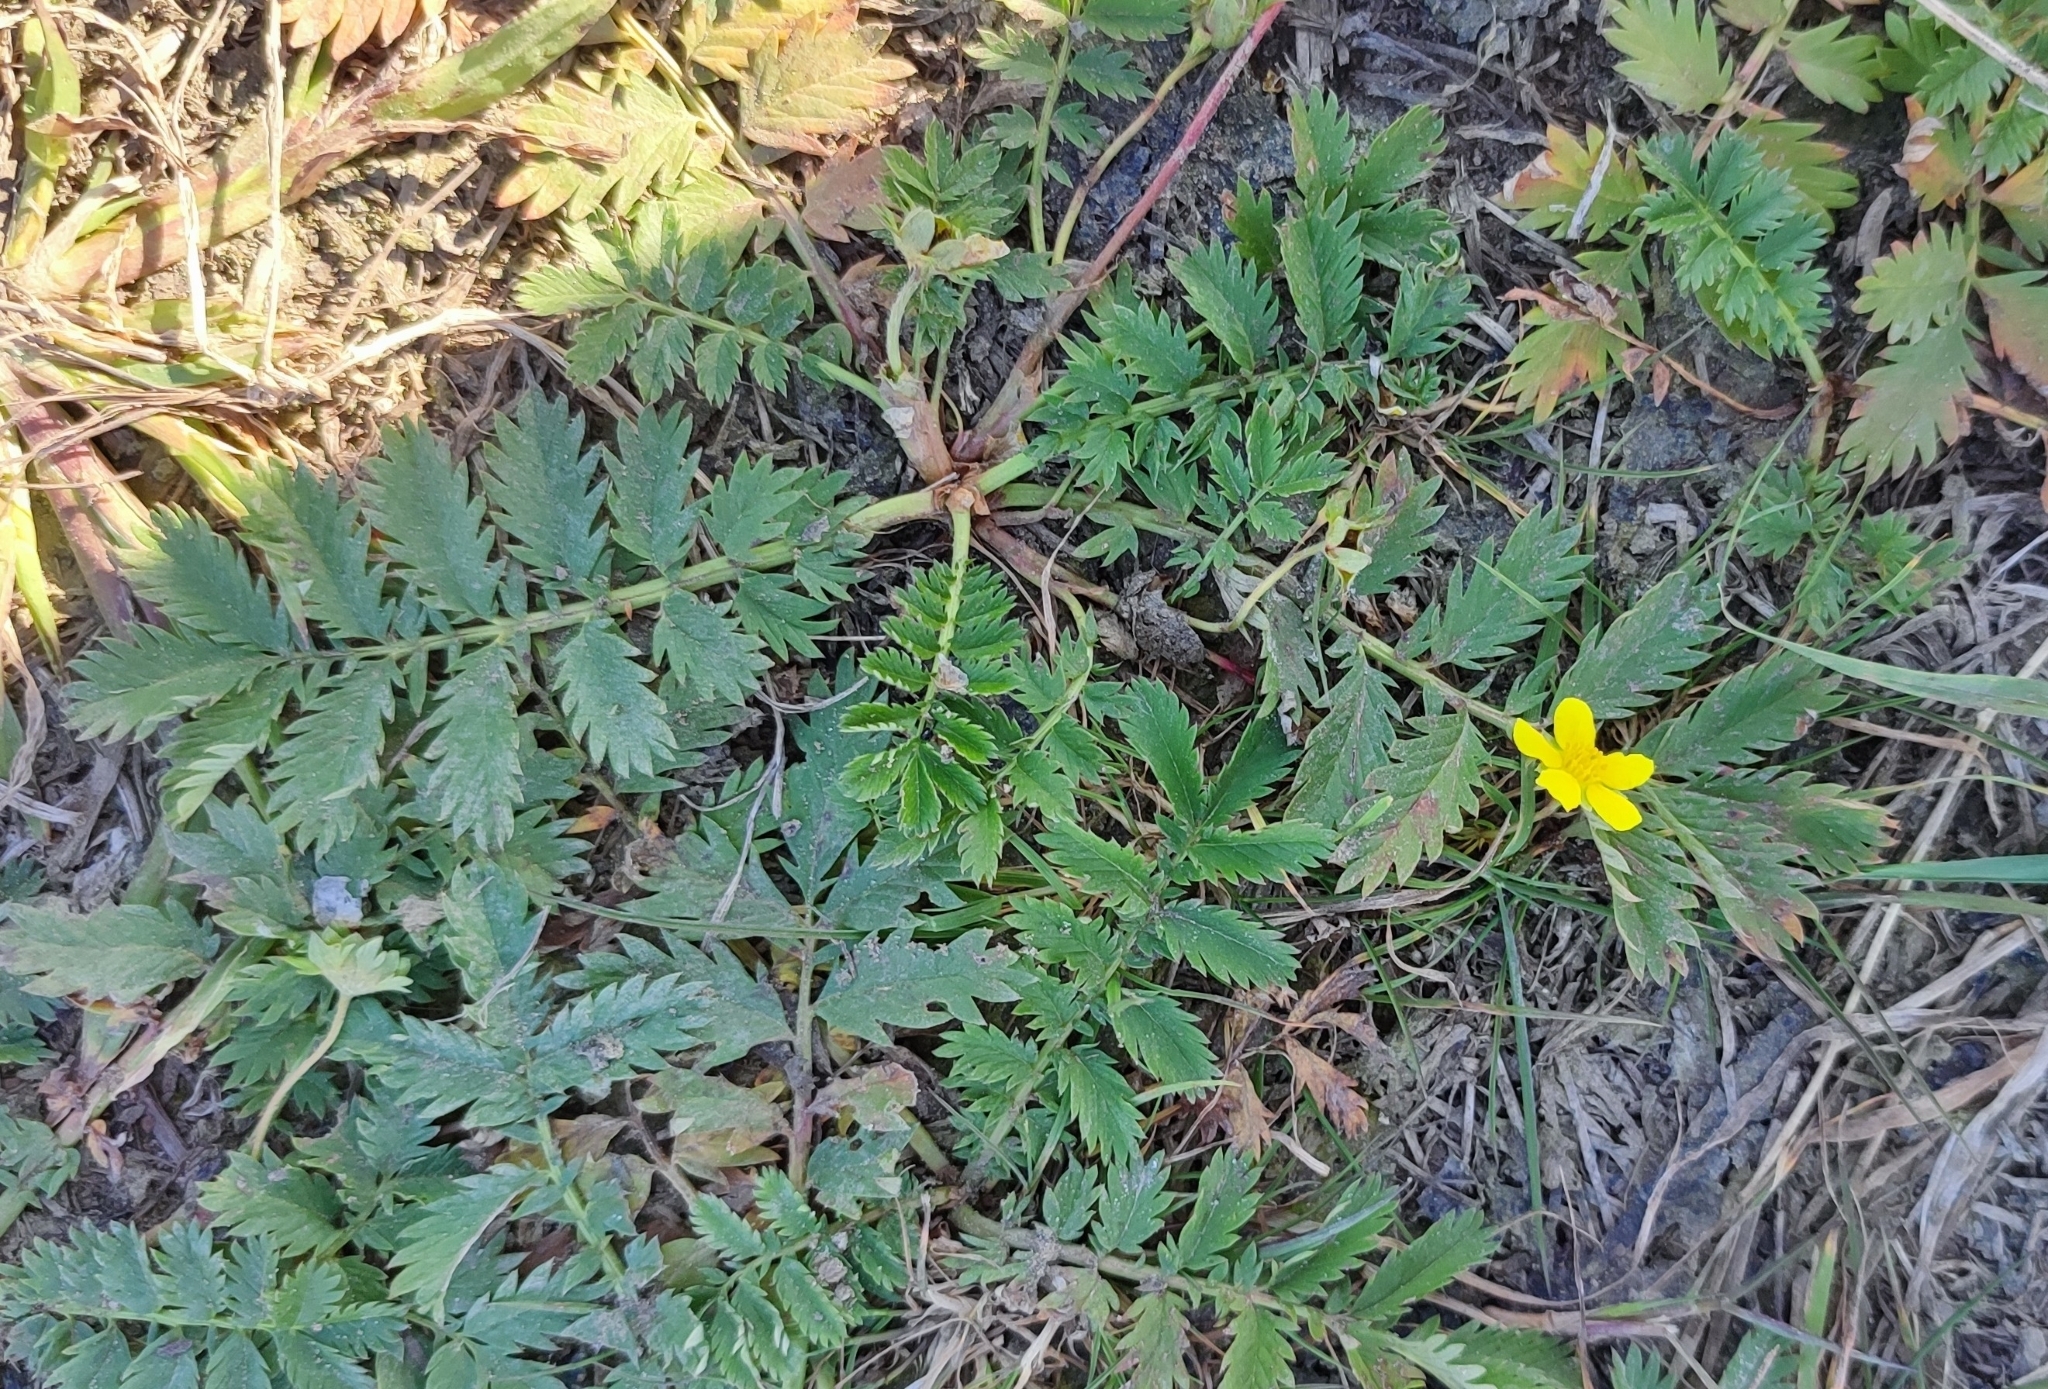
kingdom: Plantae
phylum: Tracheophyta
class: Magnoliopsida
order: Rosales
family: Rosaceae
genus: Argentina
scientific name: Argentina anserina
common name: Common silverweed
